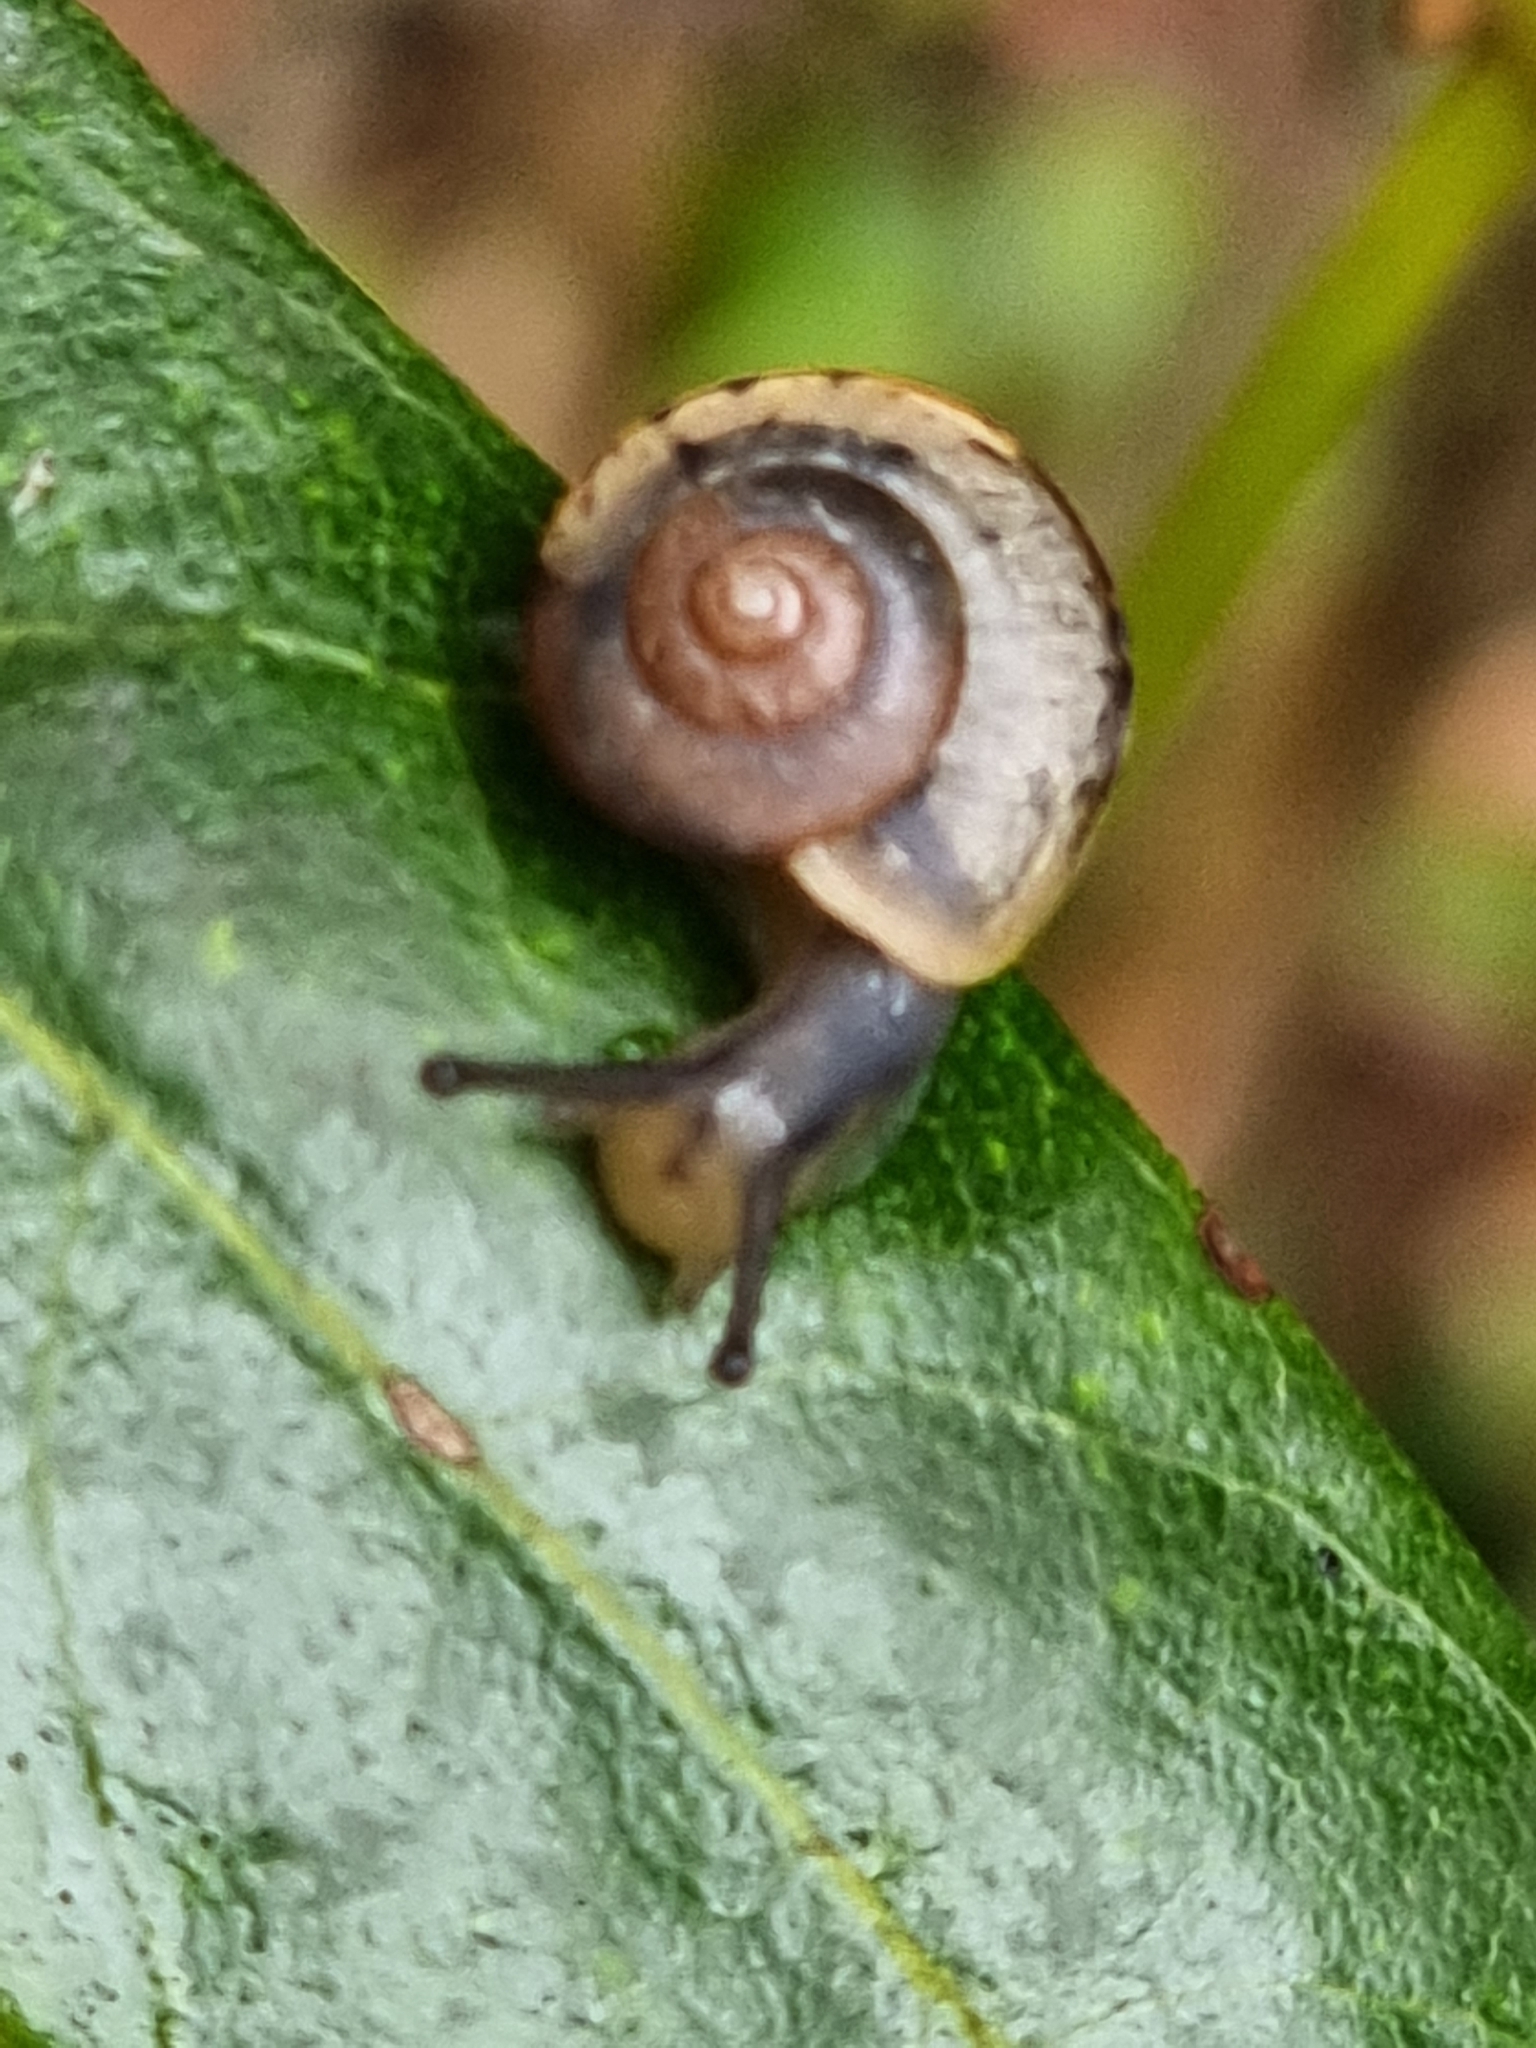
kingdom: Animalia
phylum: Mollusca
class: Gastropoda
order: Stylommatophora
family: Camaenidae
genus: Bradybaena
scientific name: Bradybaena similaris
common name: Asian trampsnail
